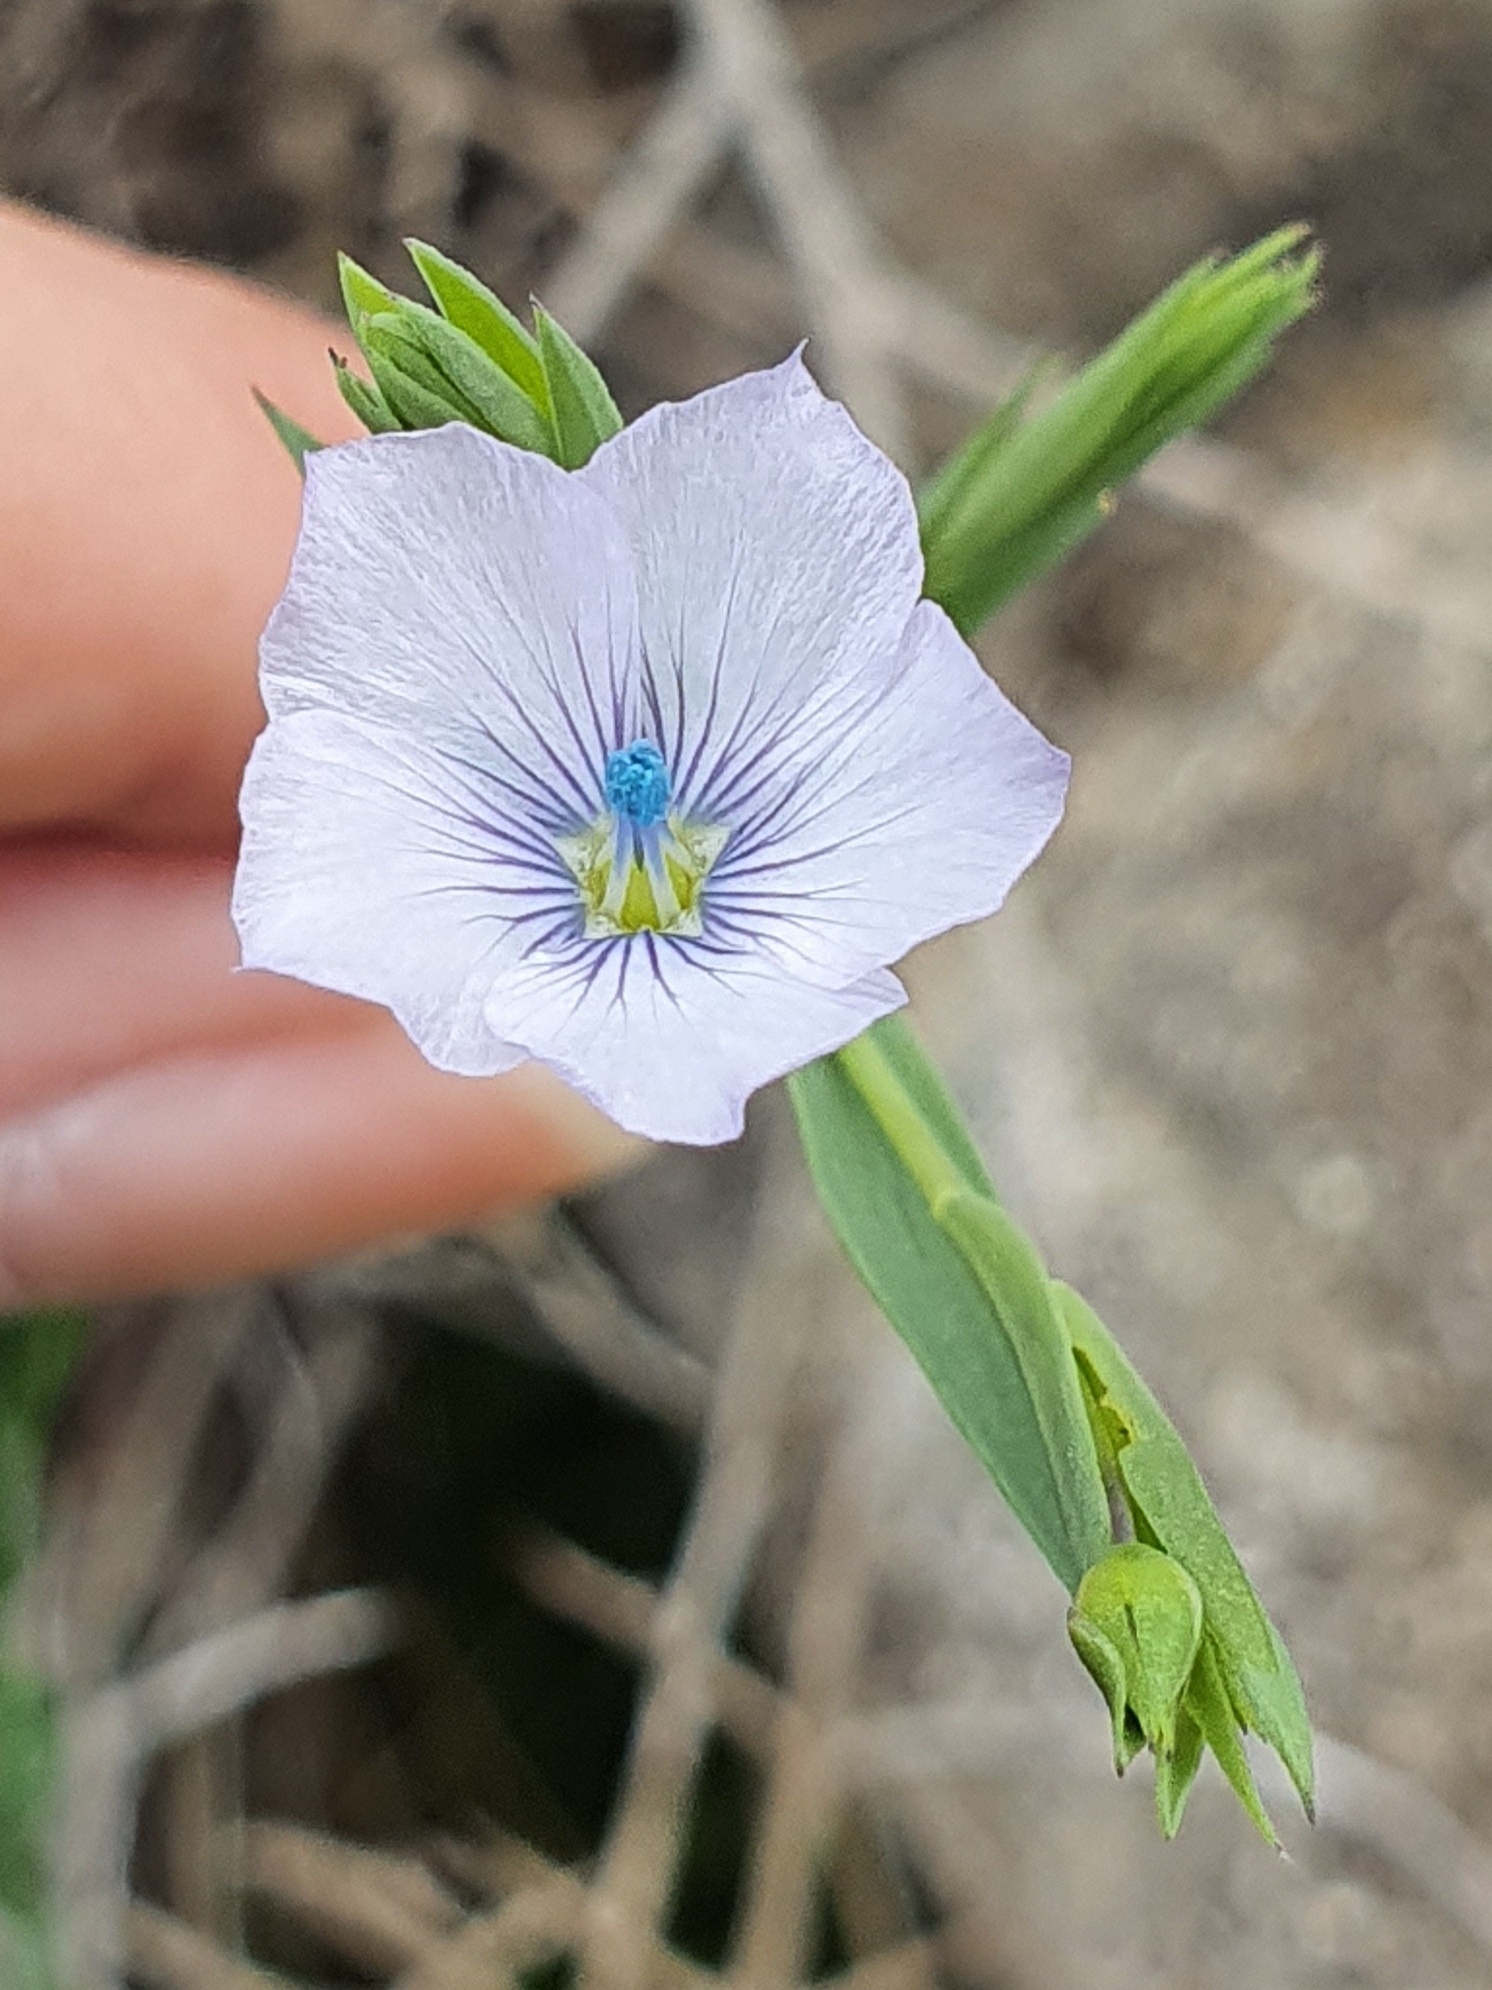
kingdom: Plantae
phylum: Tracheophyta
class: Magnoliopsida
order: Malpighiales
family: Linaceae
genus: Linum
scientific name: Linum bienne
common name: Pale flax
